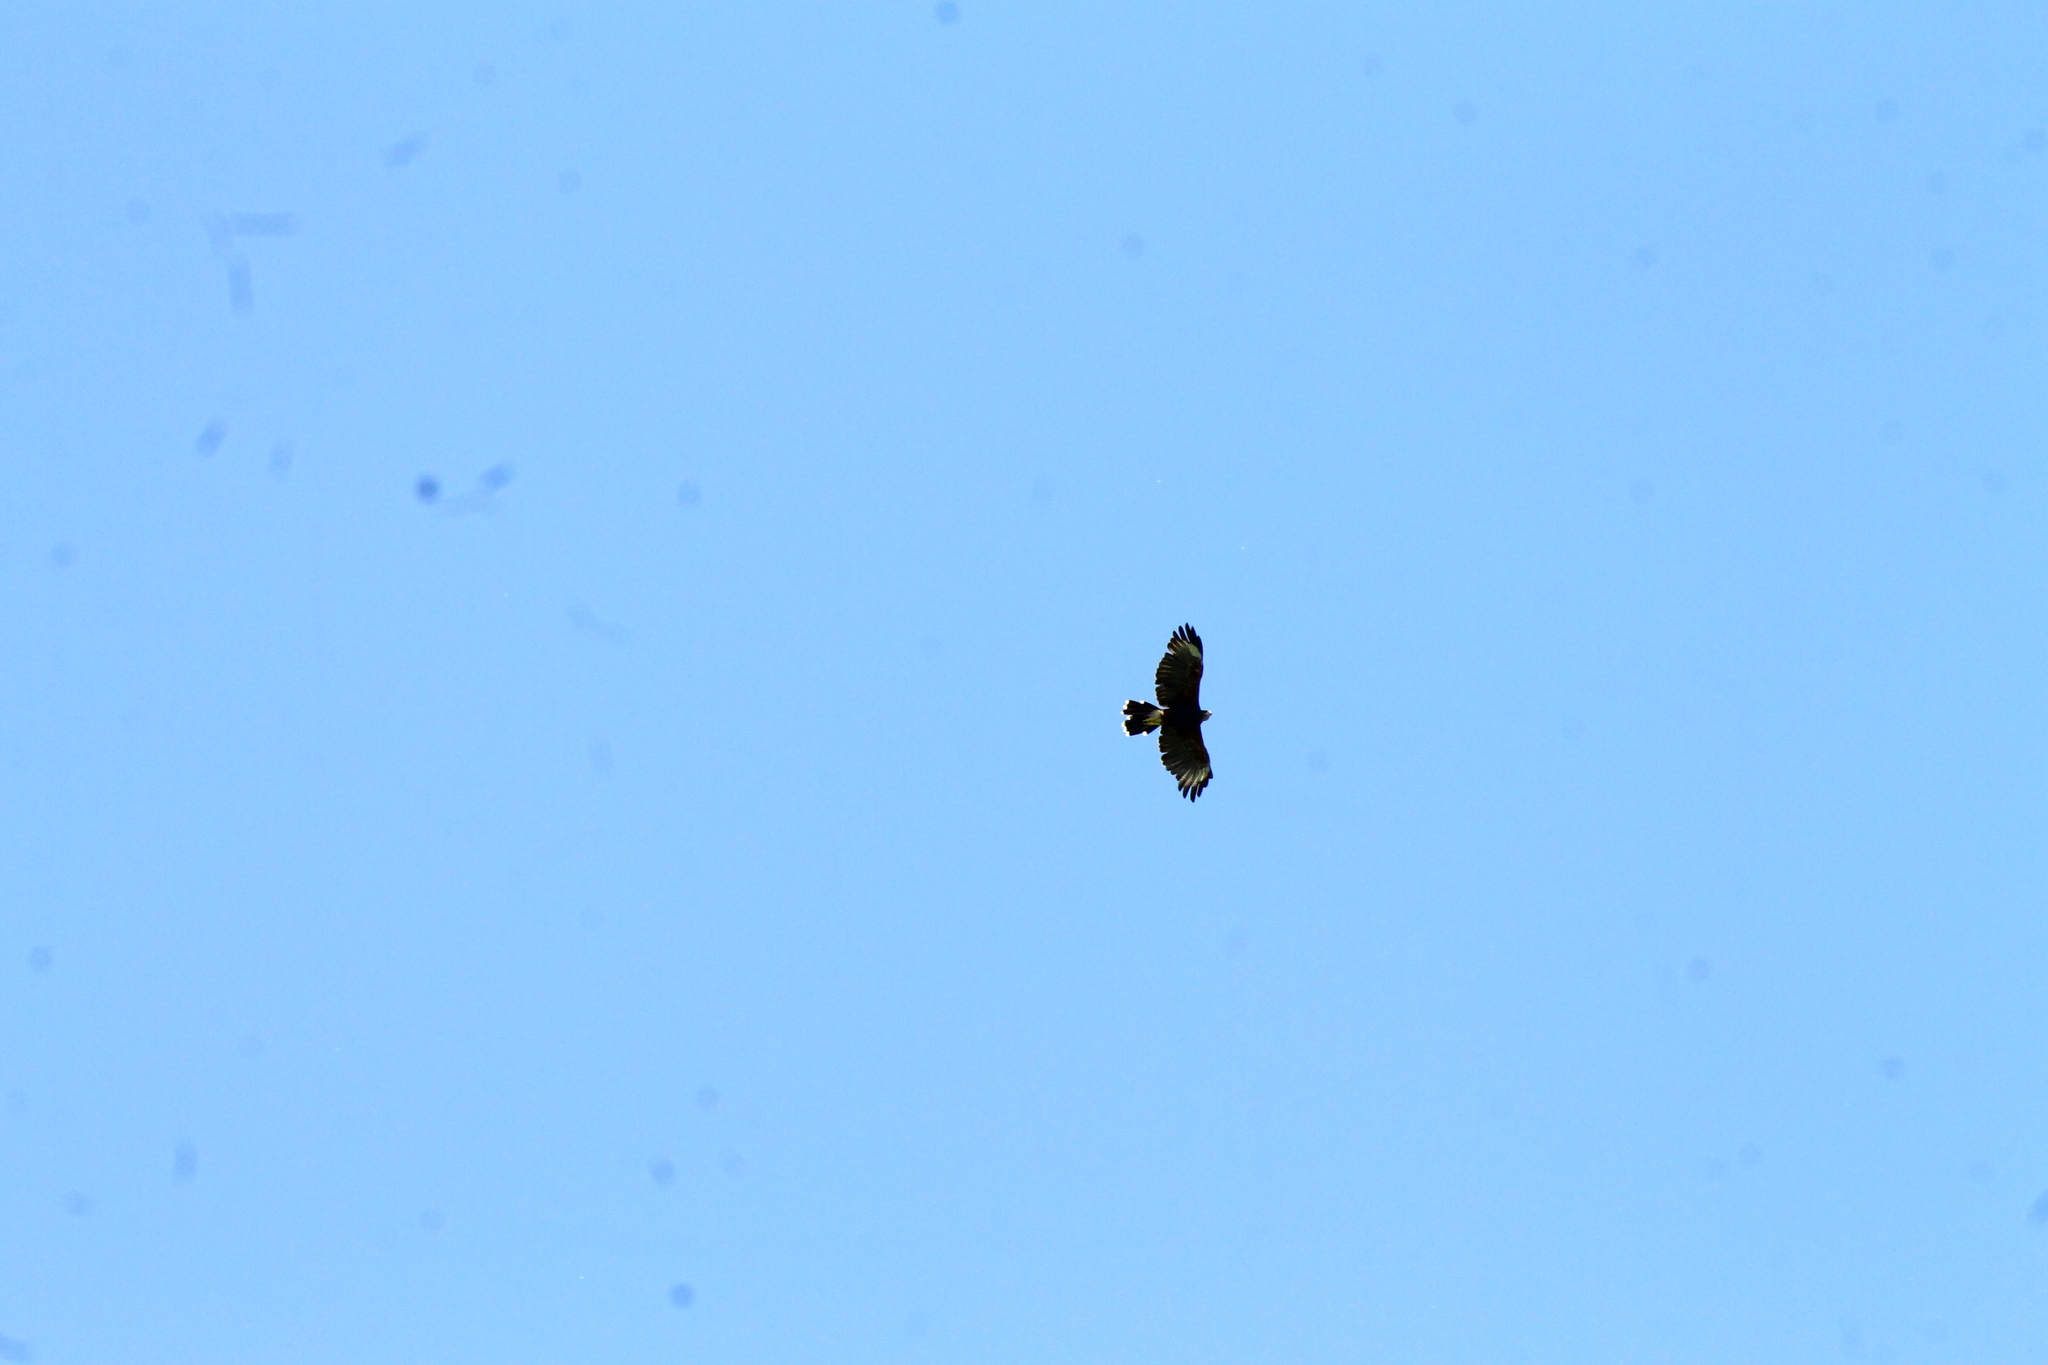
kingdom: Animalia
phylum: Chordata
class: Aves
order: Accipitriformes
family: Accipitridae
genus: Parabuteo
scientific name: Parabuteo unicinctus
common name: Harris's hawk
